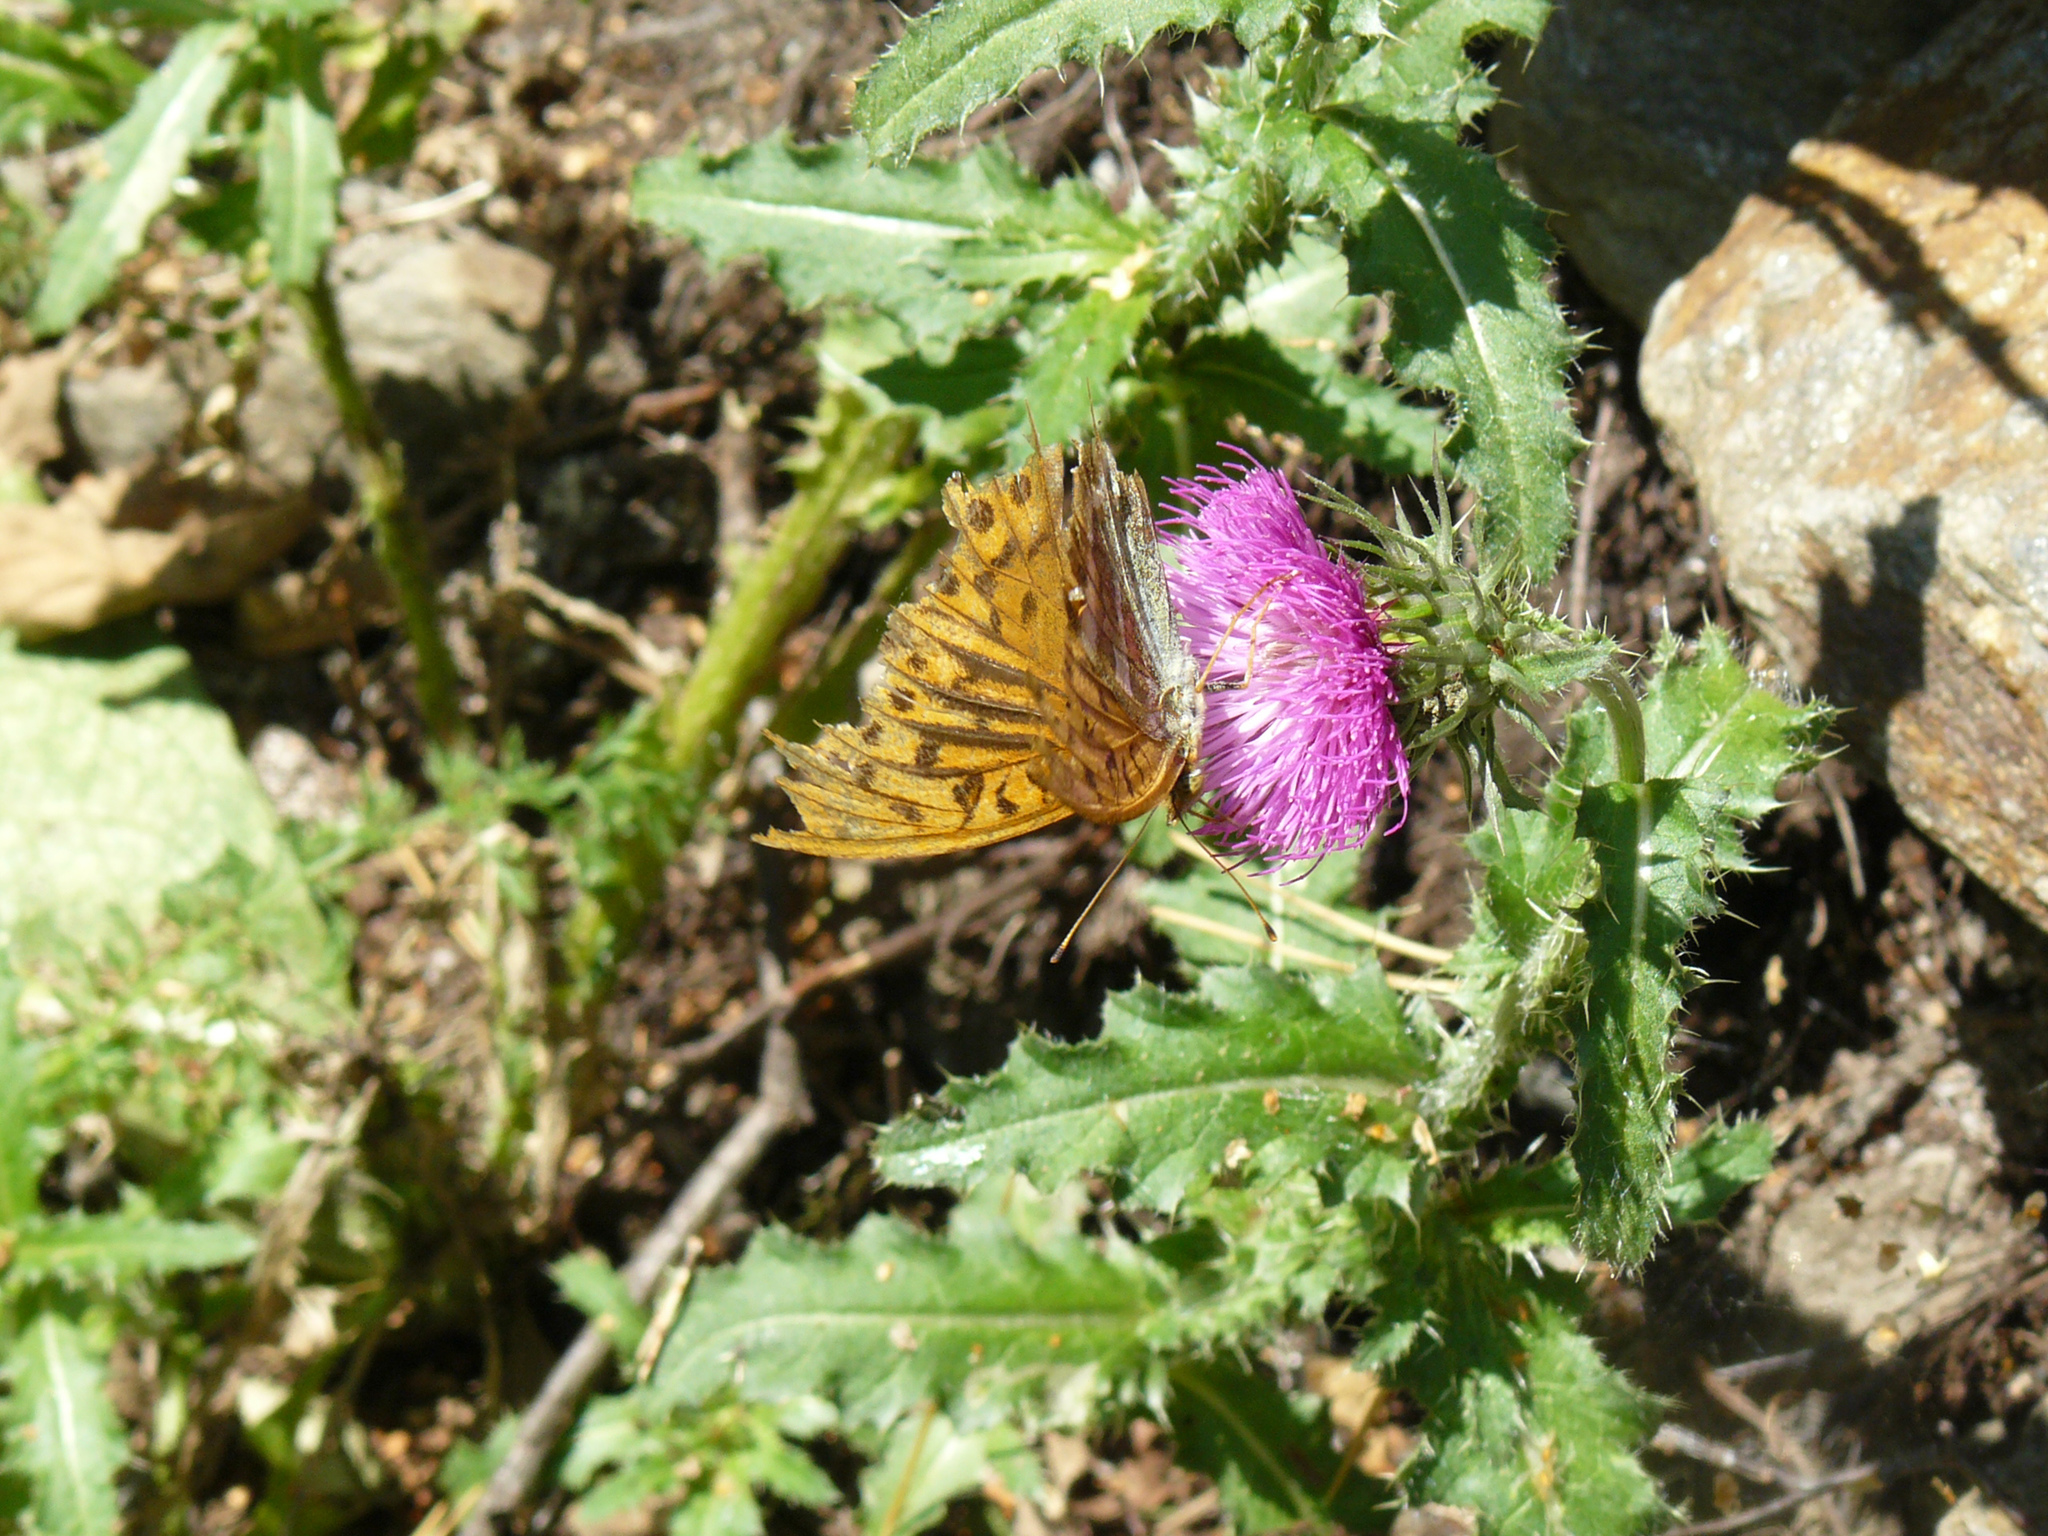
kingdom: Animalia
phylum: Arthropoda
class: Insecta
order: Lepidoptera
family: Nymphalidae
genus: Argynnis
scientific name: Argynnis paphia
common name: Silver-washed fritillary
